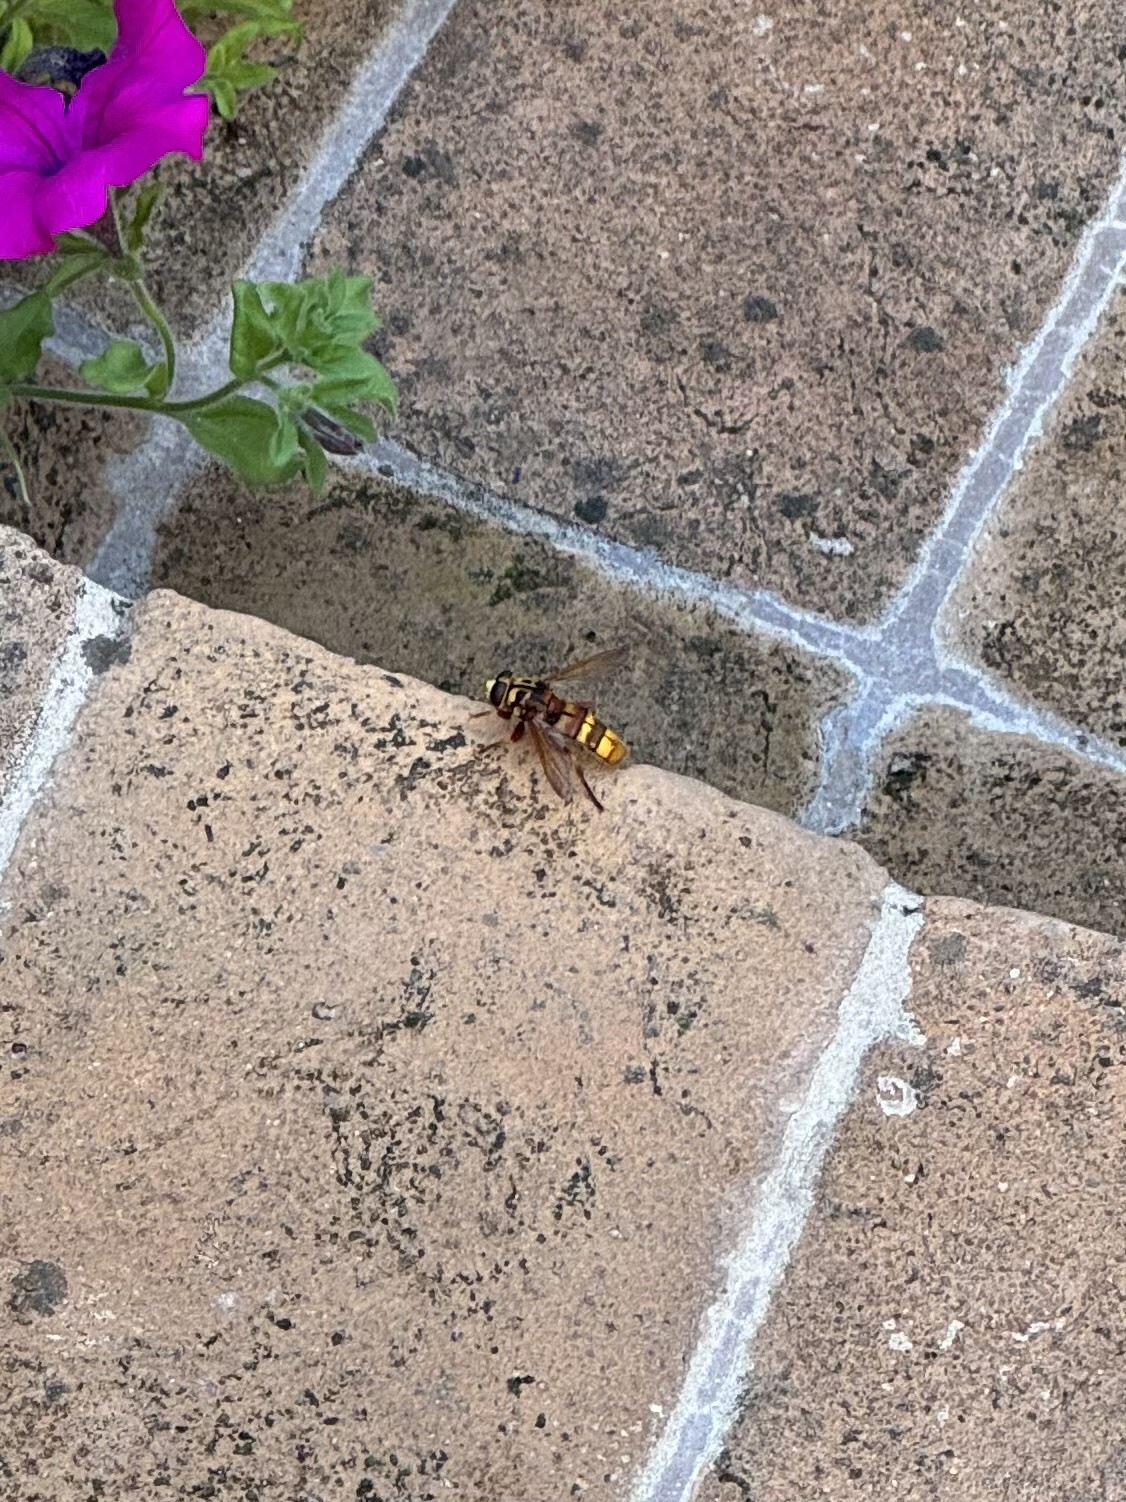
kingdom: Animalia
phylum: Arthropoda
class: Insecta
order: Diptera
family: Syrphidae
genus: Milesia
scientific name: Milesia crabroniformis
